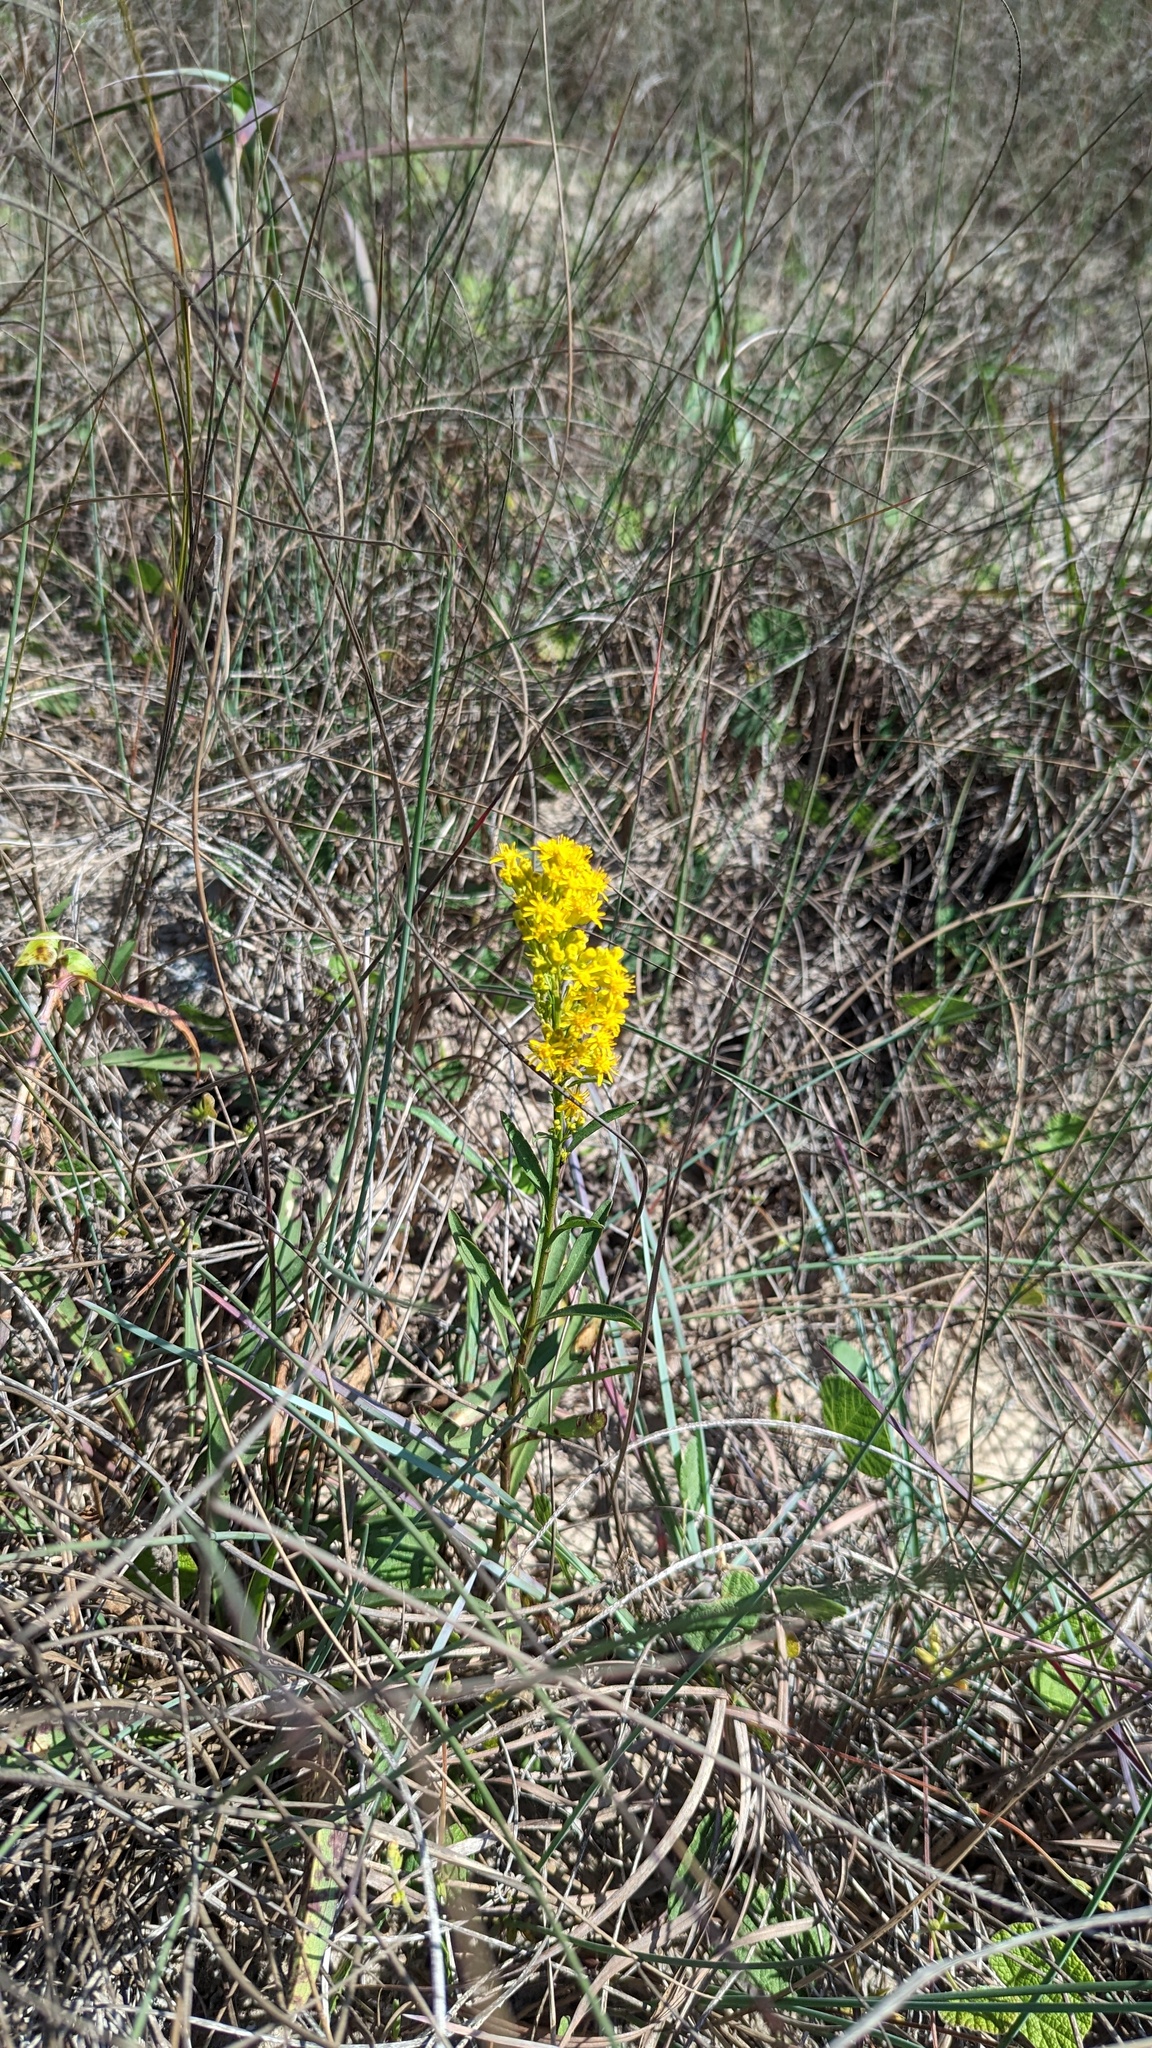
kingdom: Plantae
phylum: Tracheophyta
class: Magnoliopsida
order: Asterales
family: Asteraceae
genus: Solidago
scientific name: Solidago mexicana
